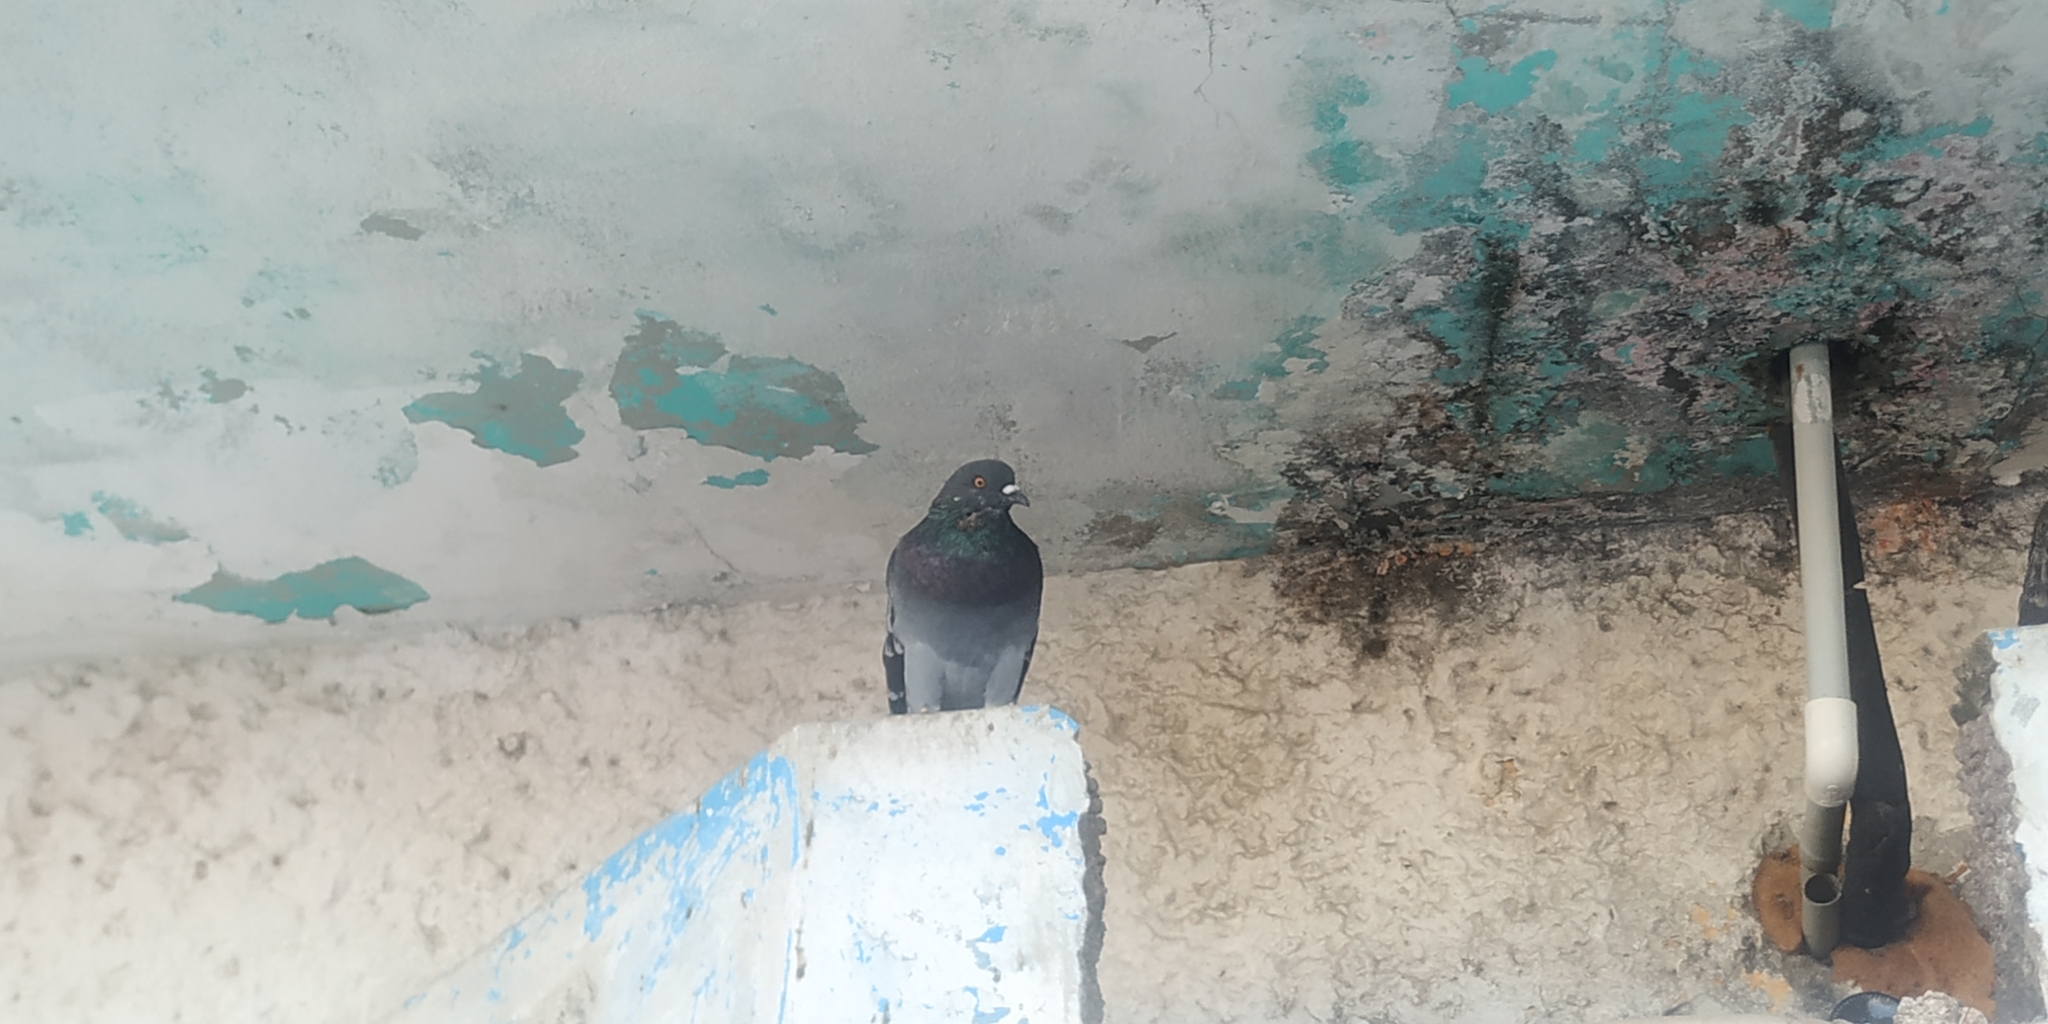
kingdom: Animalia
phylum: Chordata
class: Aves
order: Columbiformes
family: Columbidae
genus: Columba
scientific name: Columba livia
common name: Rock pigeon
